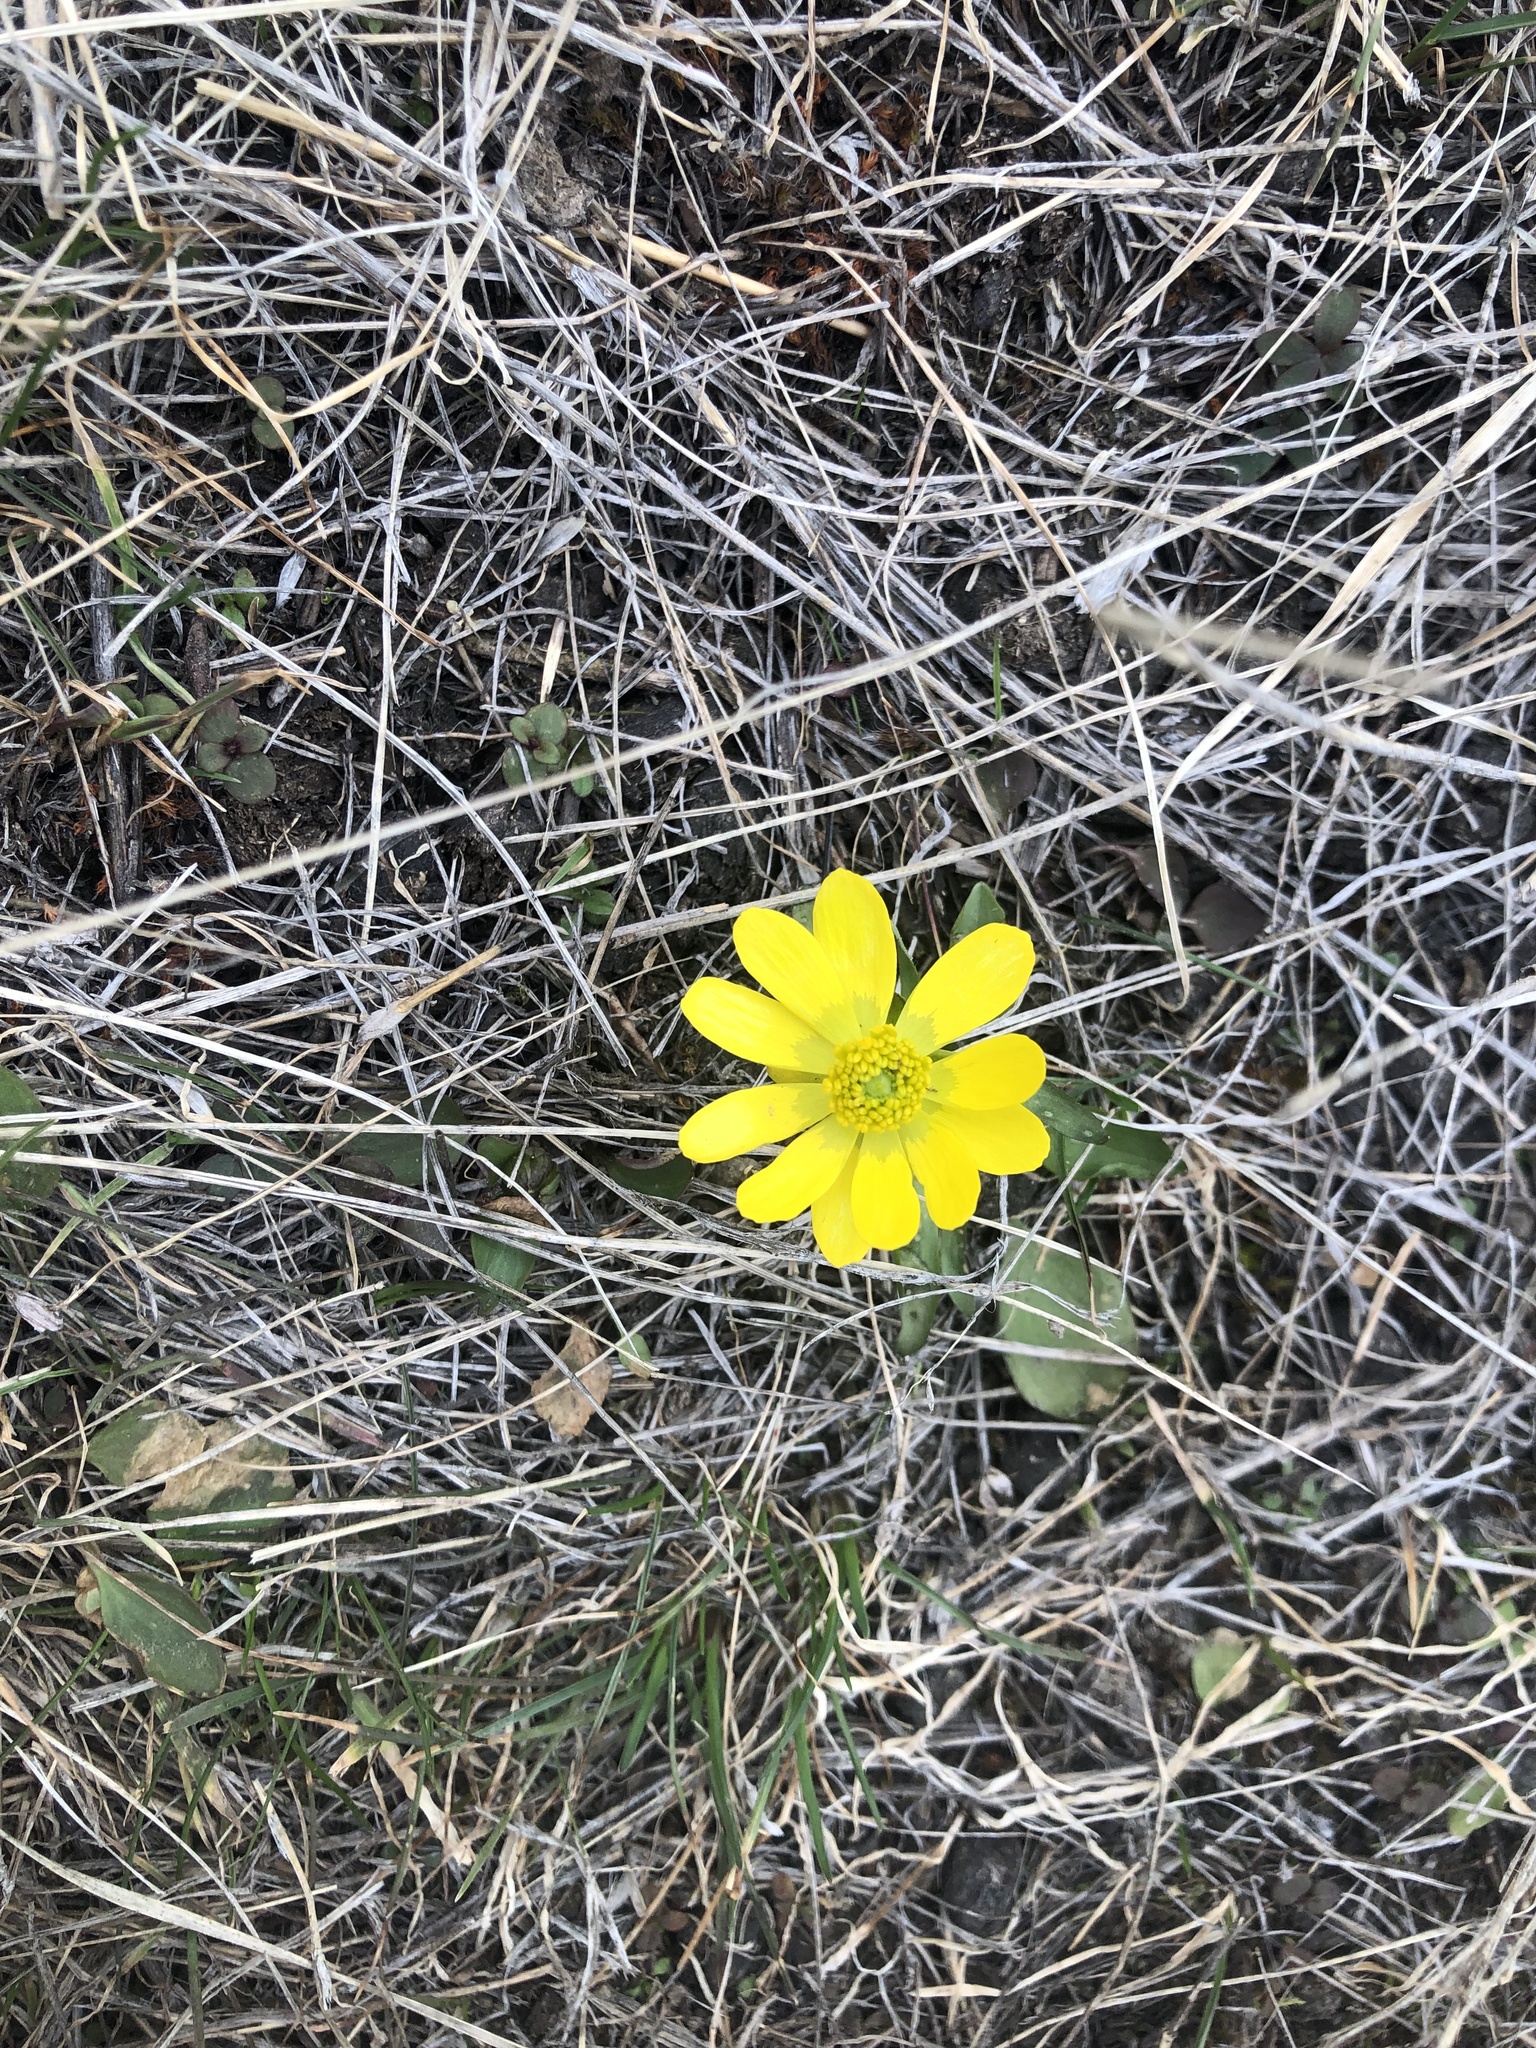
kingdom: Plantae
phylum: Tracheophyta
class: Magnoliopsida
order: Ranunculales
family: Ranunculaceae
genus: Ranunculus
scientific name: Ranunculus glaberrimus
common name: Sagebrush buttercup
